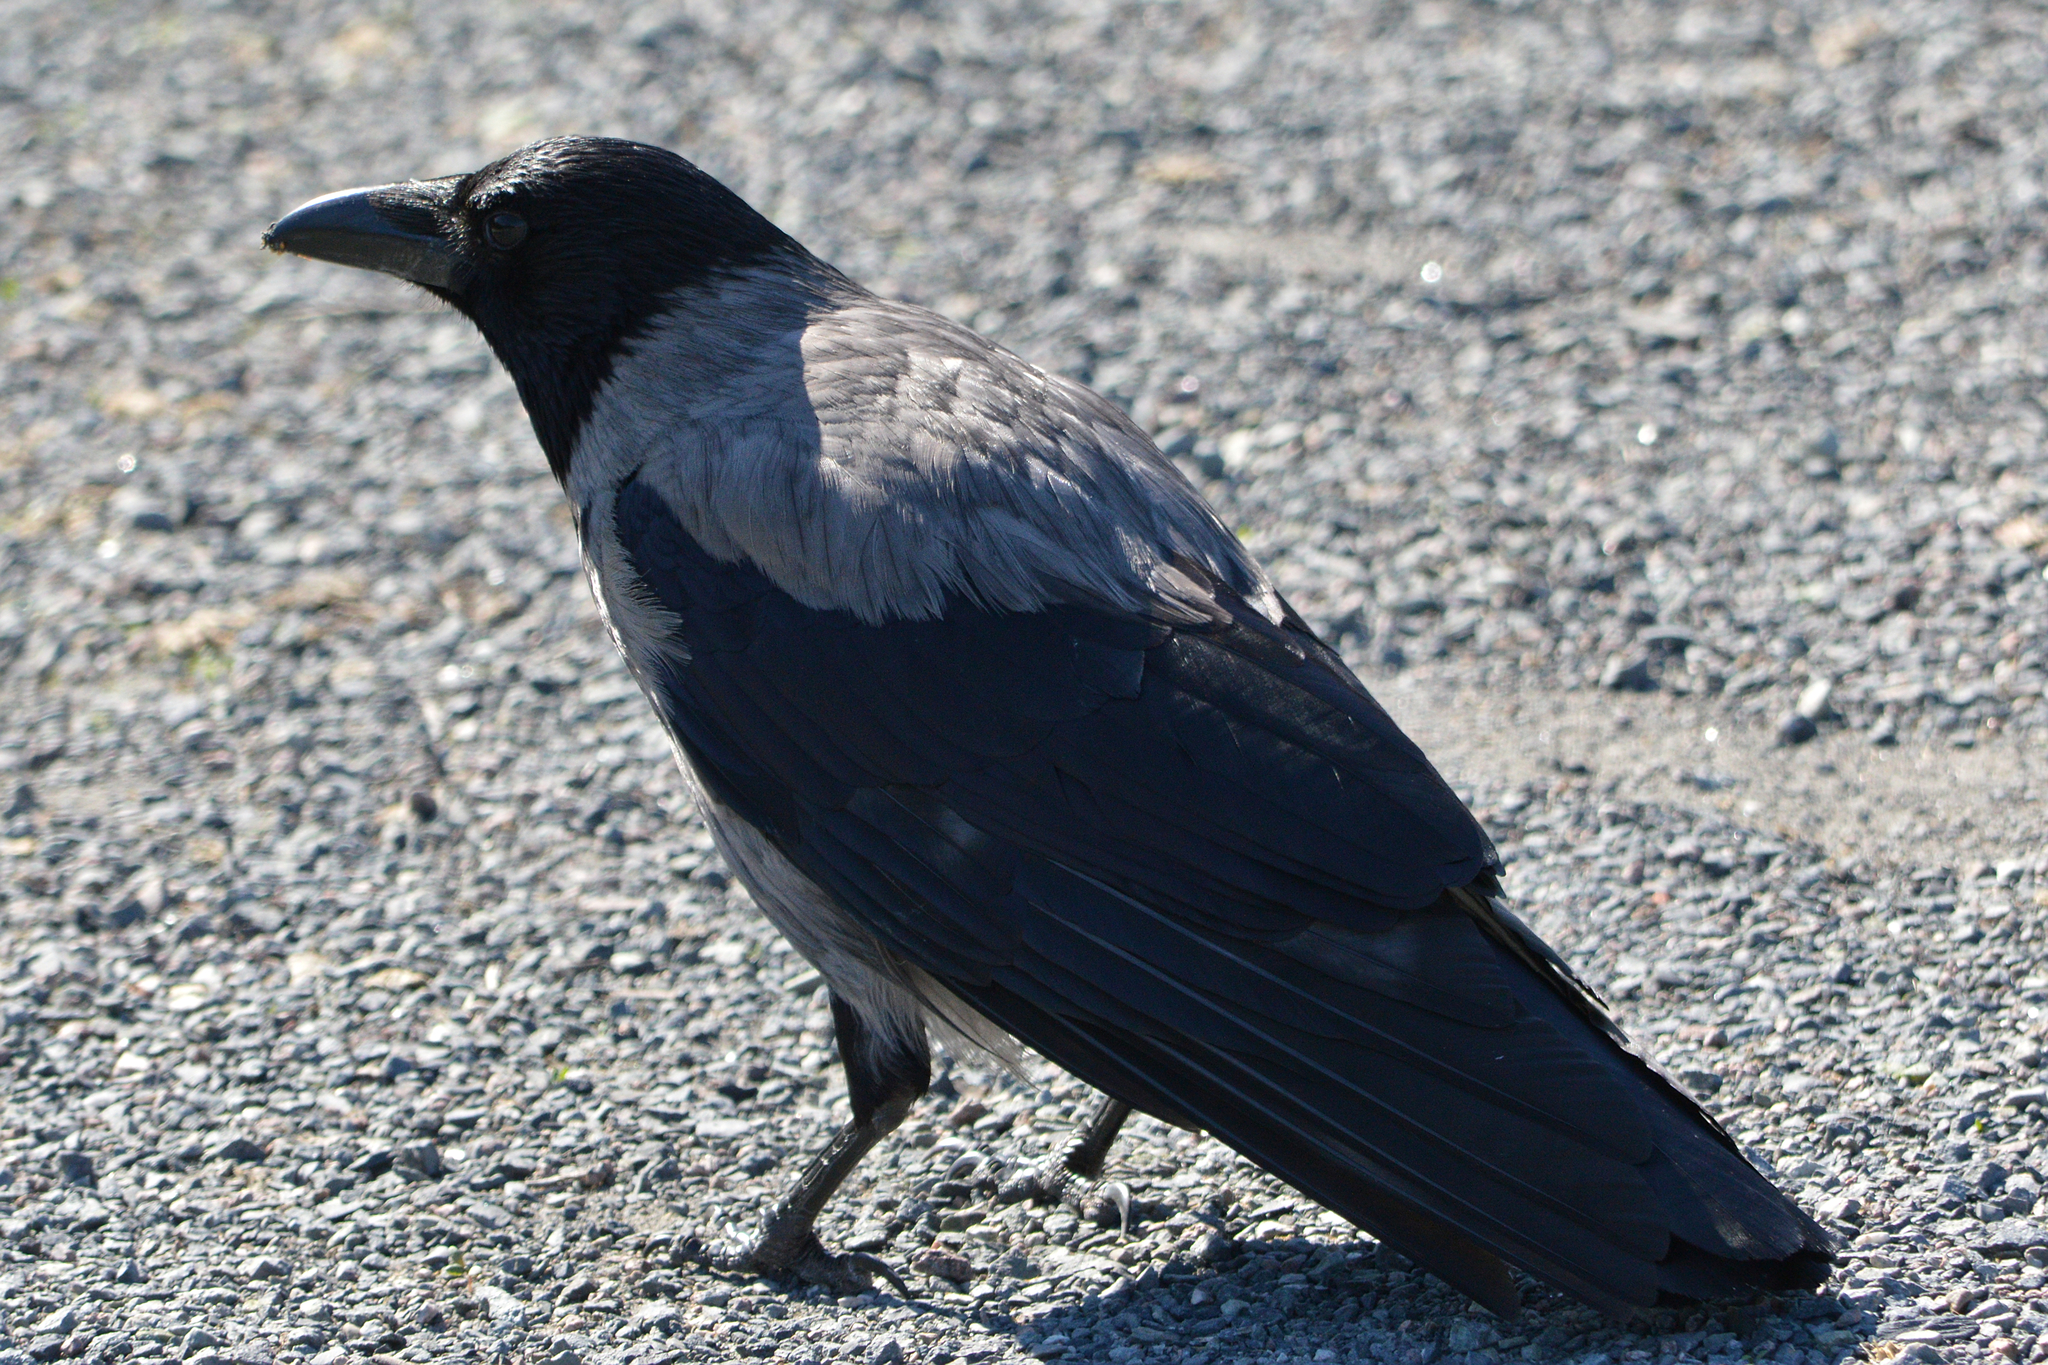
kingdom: Animalia
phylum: Chordata
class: Aves
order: Passeriformes
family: Corvidae
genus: Corvus
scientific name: Corvus cornix
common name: Hooded crow
